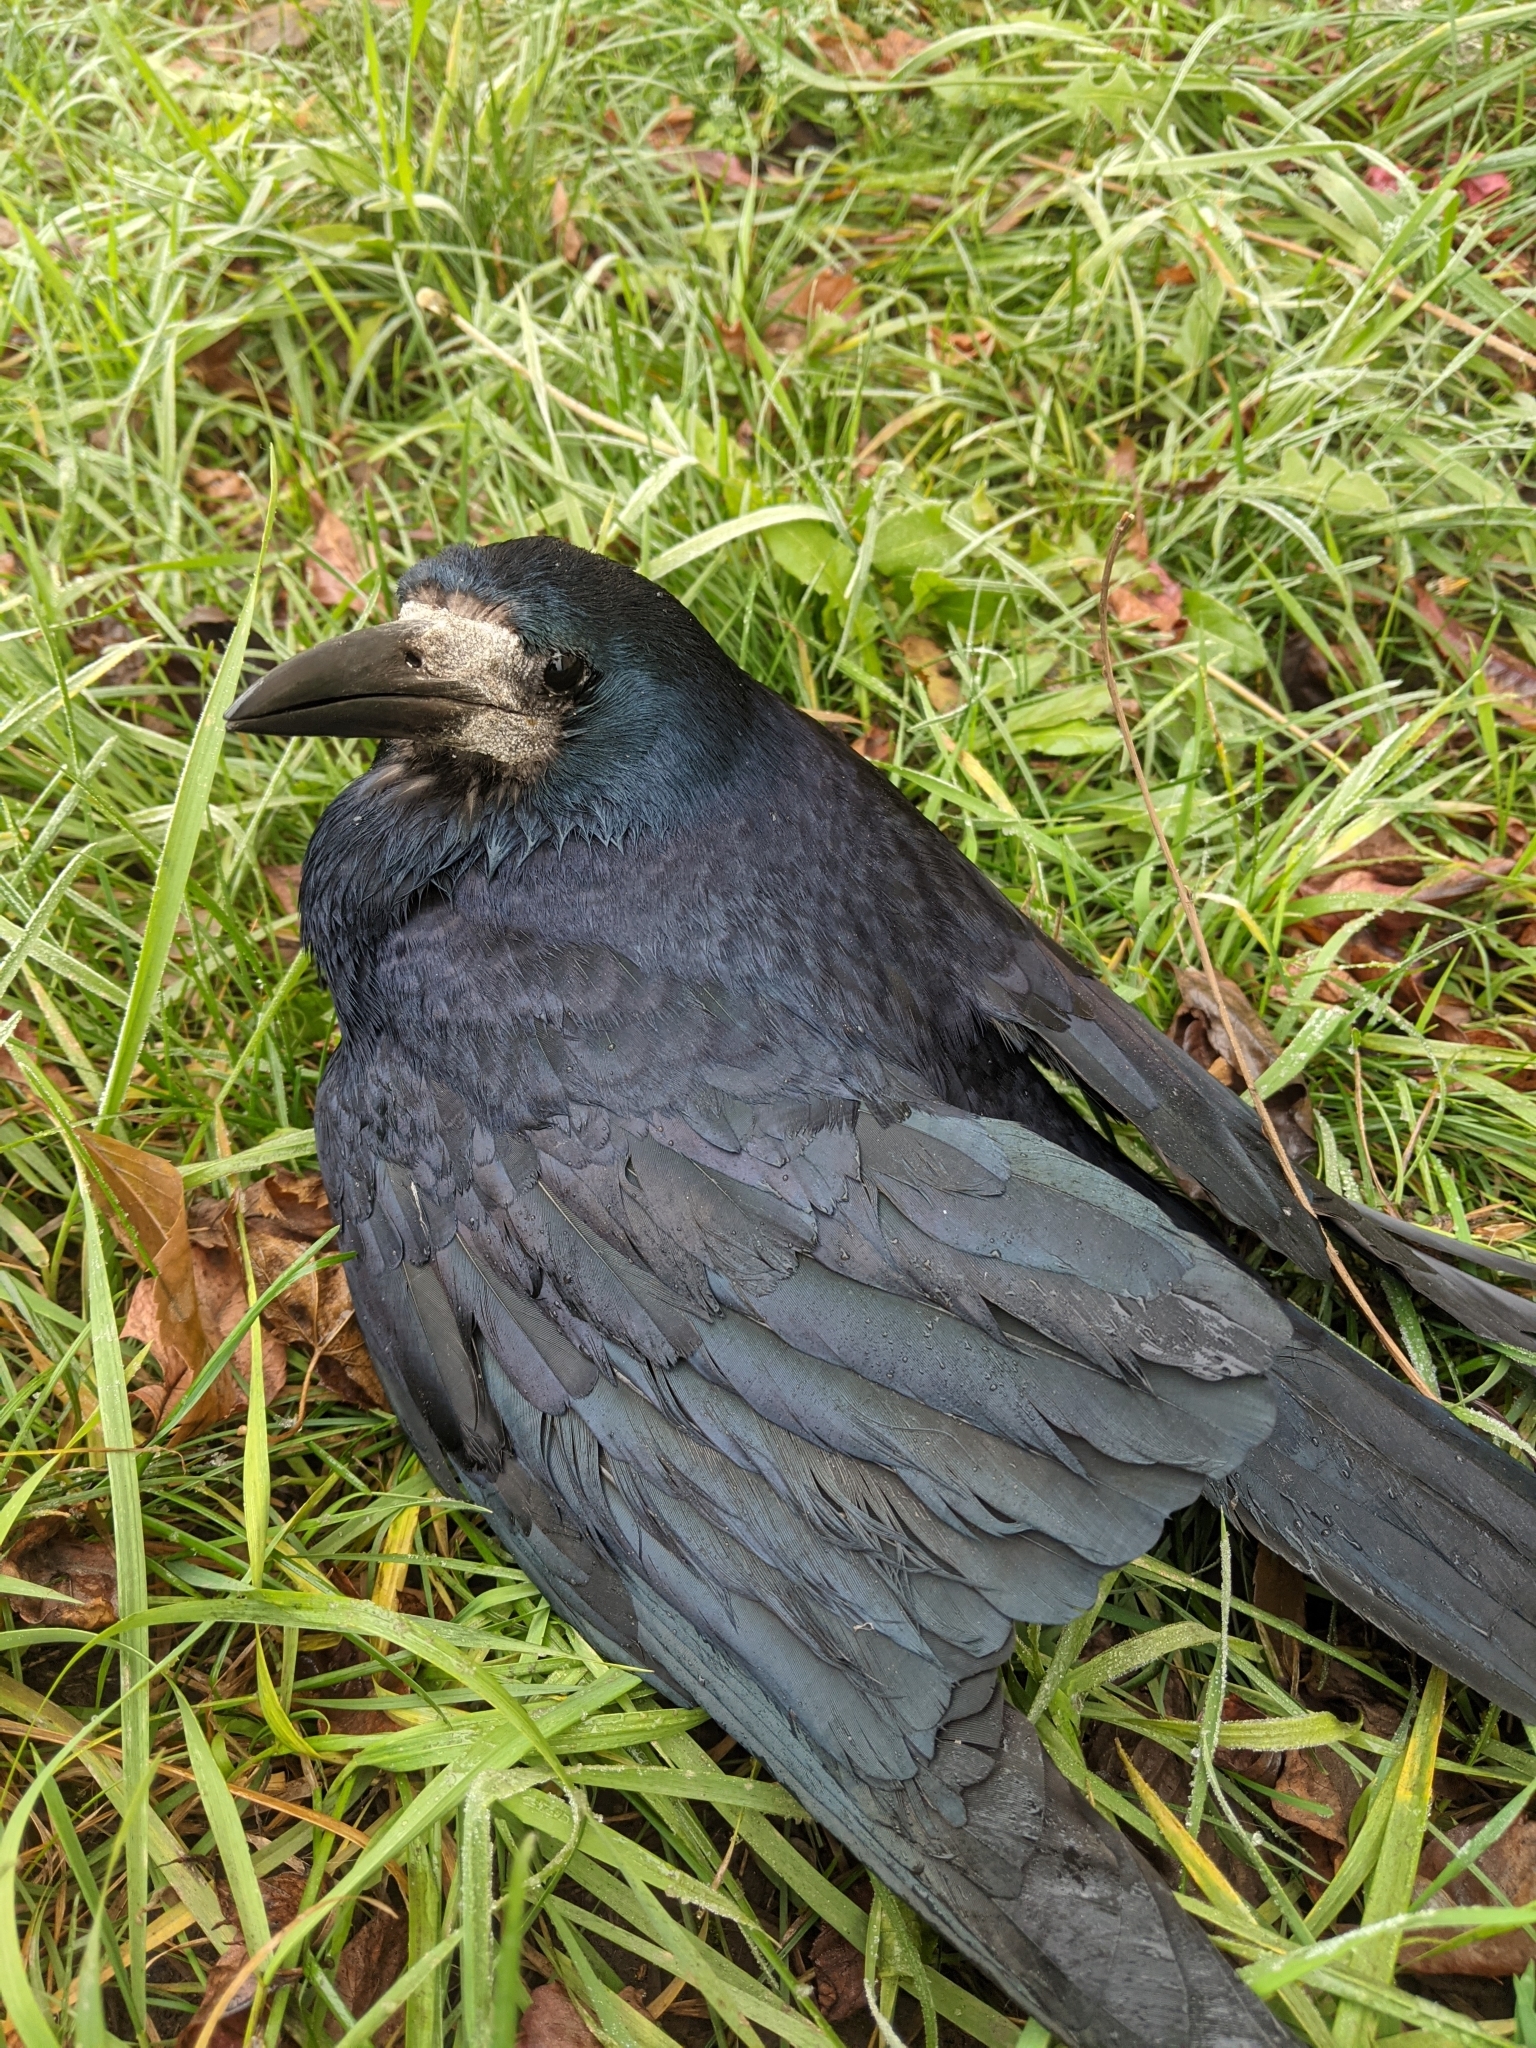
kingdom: Animalia
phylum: Chordata
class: Aves
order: Passeriformes
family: Corvidae
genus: Corvus
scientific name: Corvus frugilegus
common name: Rook
